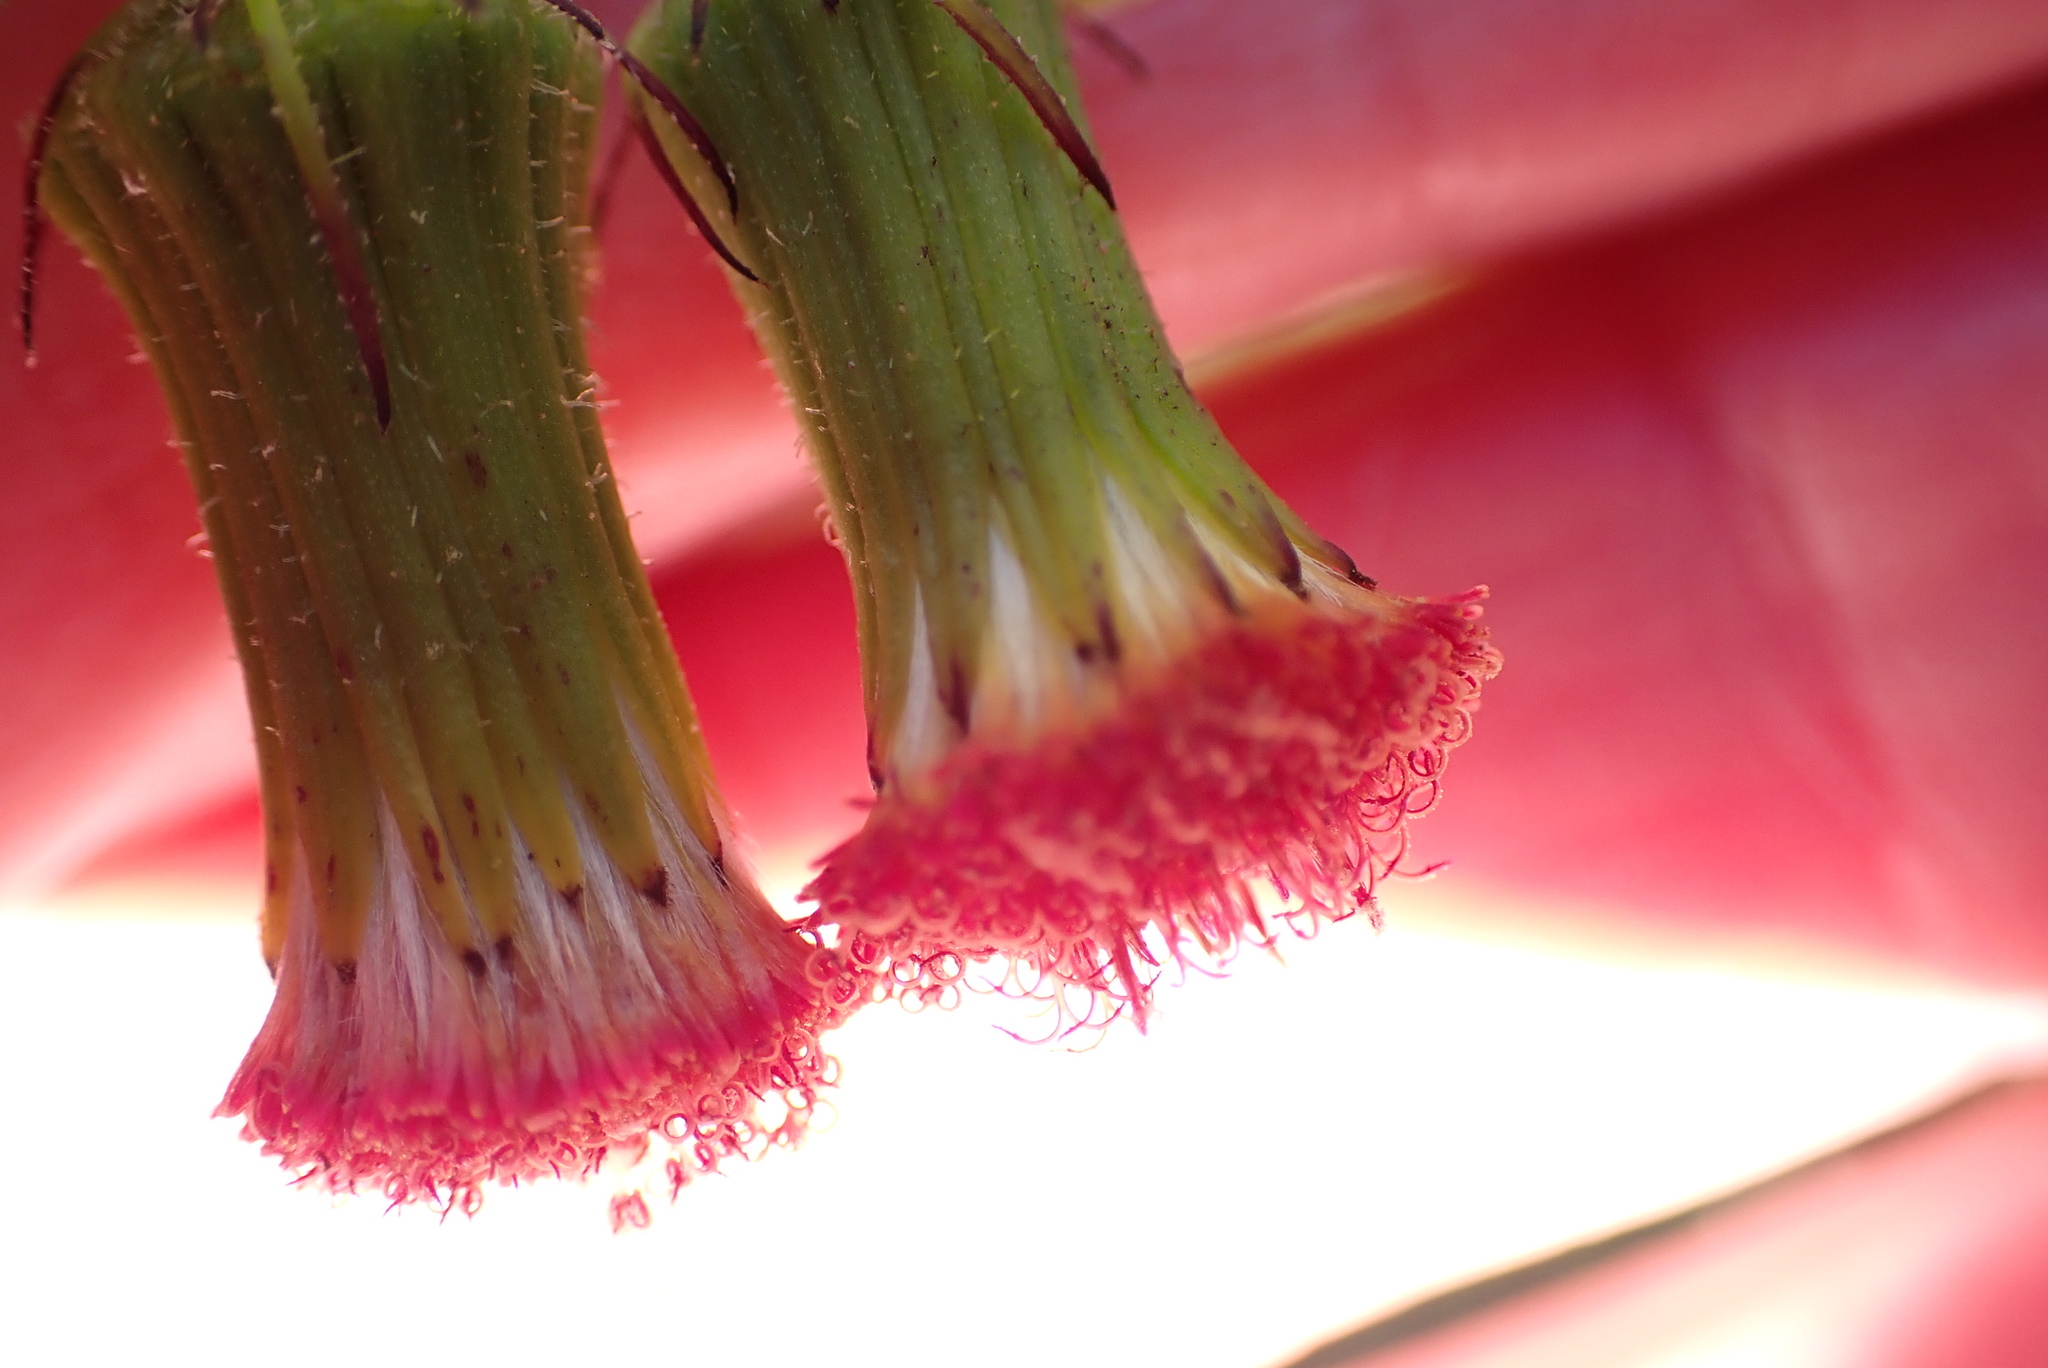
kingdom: Plantae
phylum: Tracheophyta
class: Magnoliopsida
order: Asterales
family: Asteraceae
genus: Crassocephalum
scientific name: Crassocephalum crepidioides
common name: Redflower ragleaf
